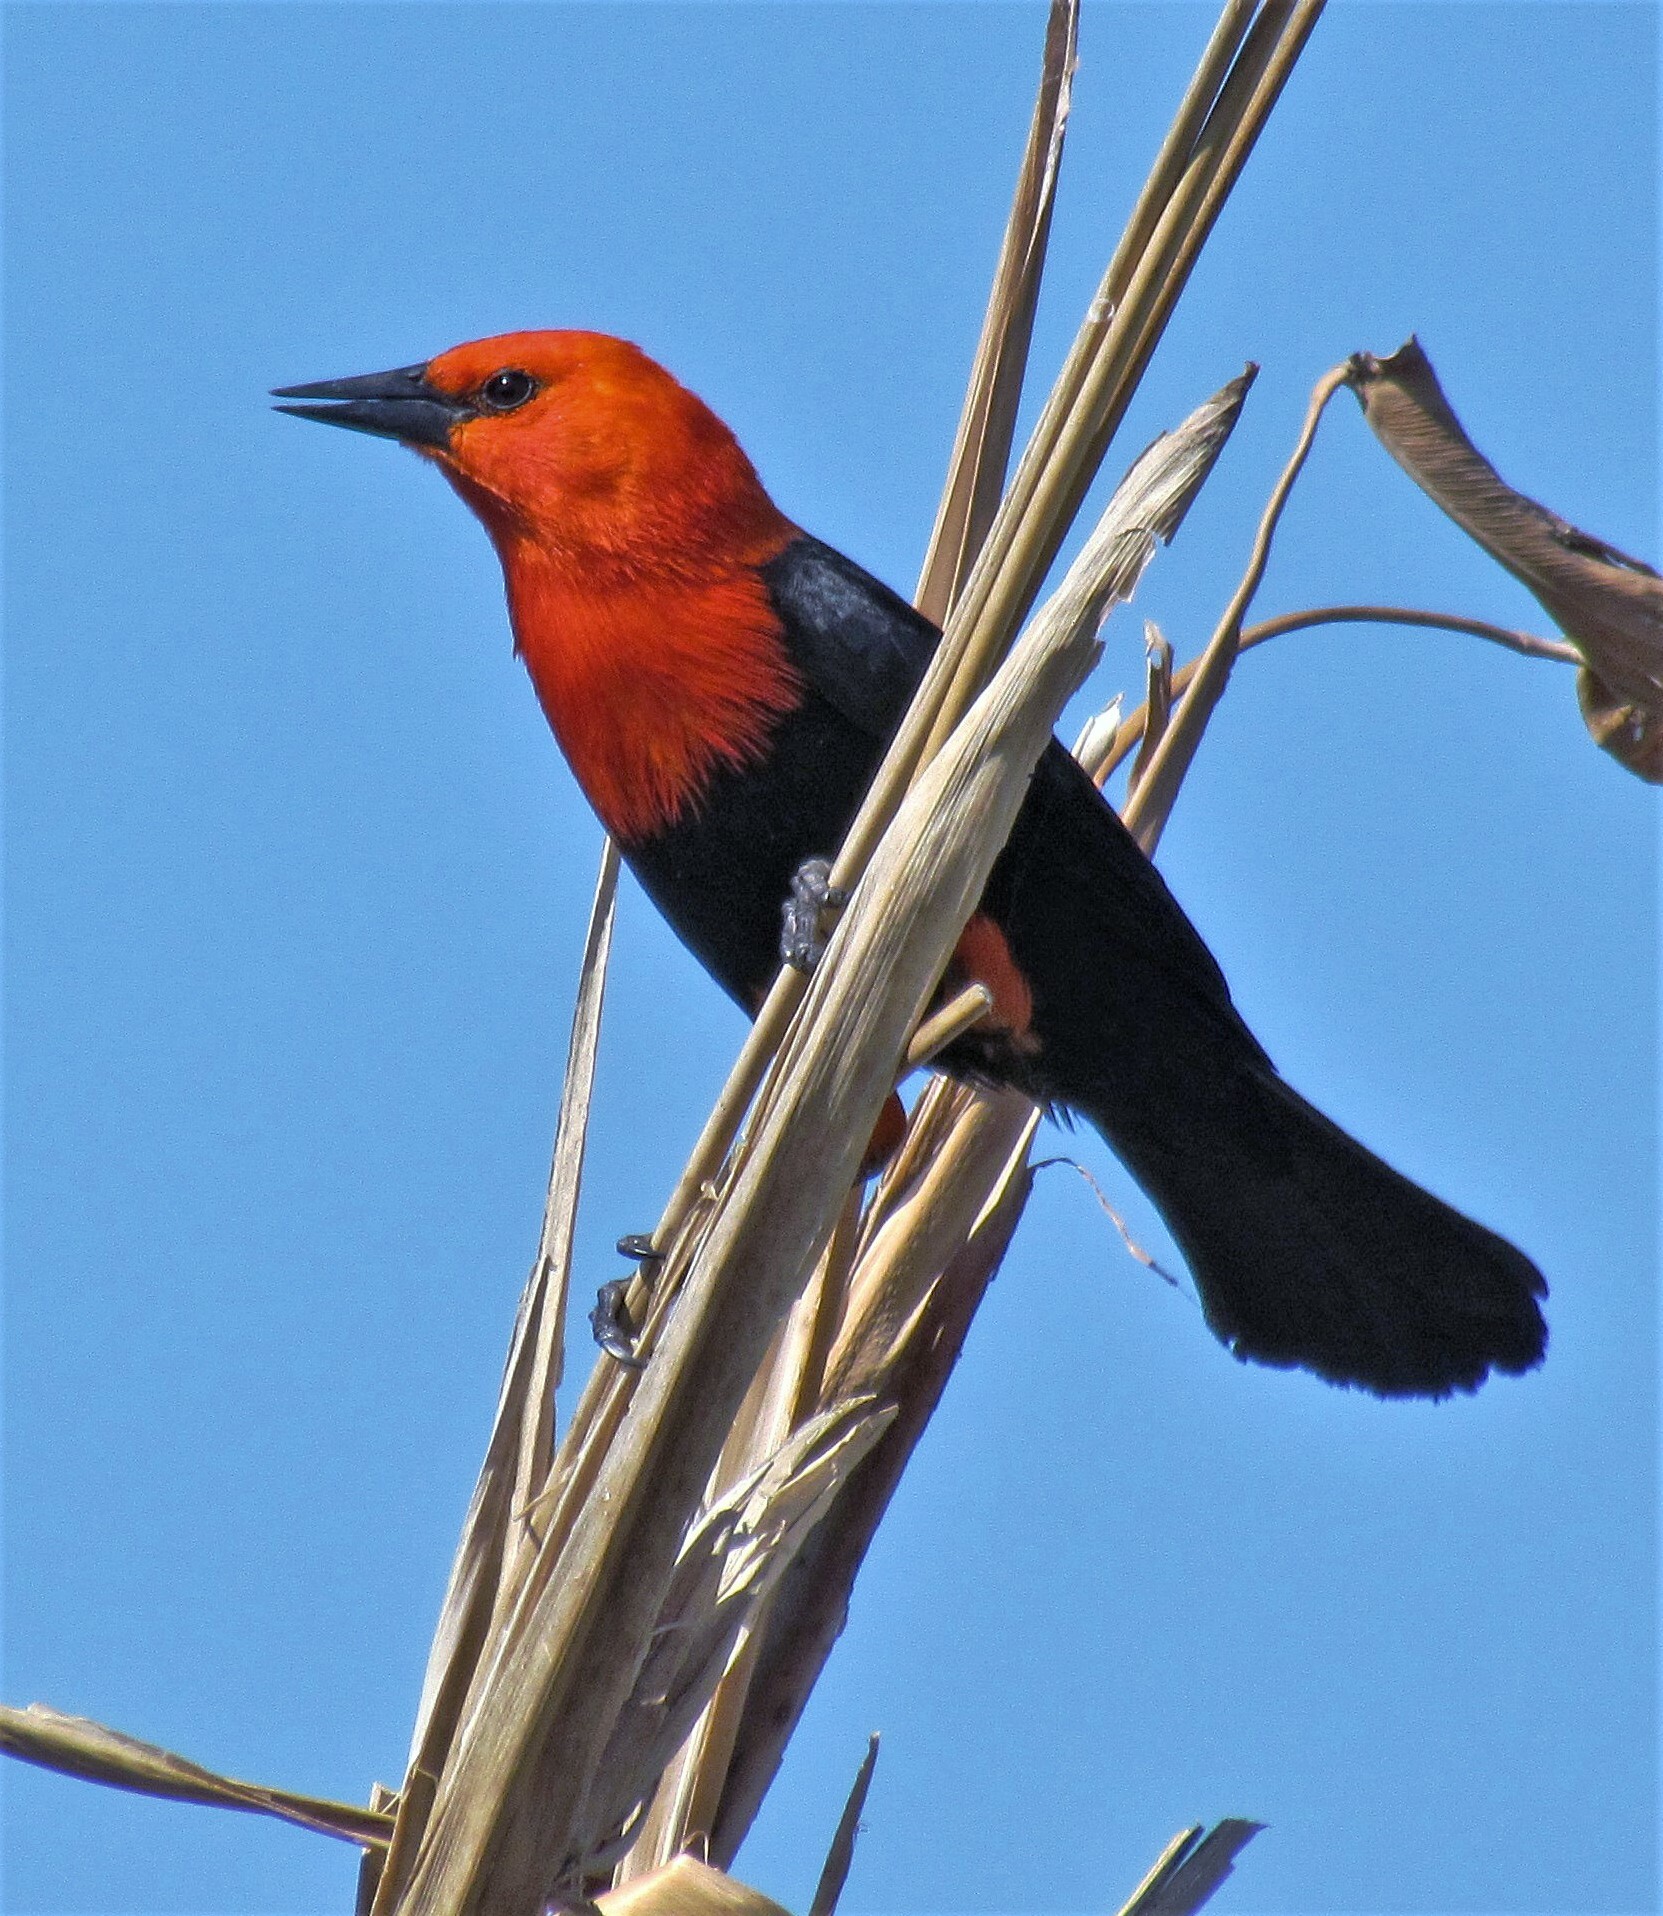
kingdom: Animalia
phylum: Chordata
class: Aves
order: Passeriformes
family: Icteridae
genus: Amblyramphus
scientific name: Amblyramphus holosericeus
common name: Scarlet-headed blackbird
